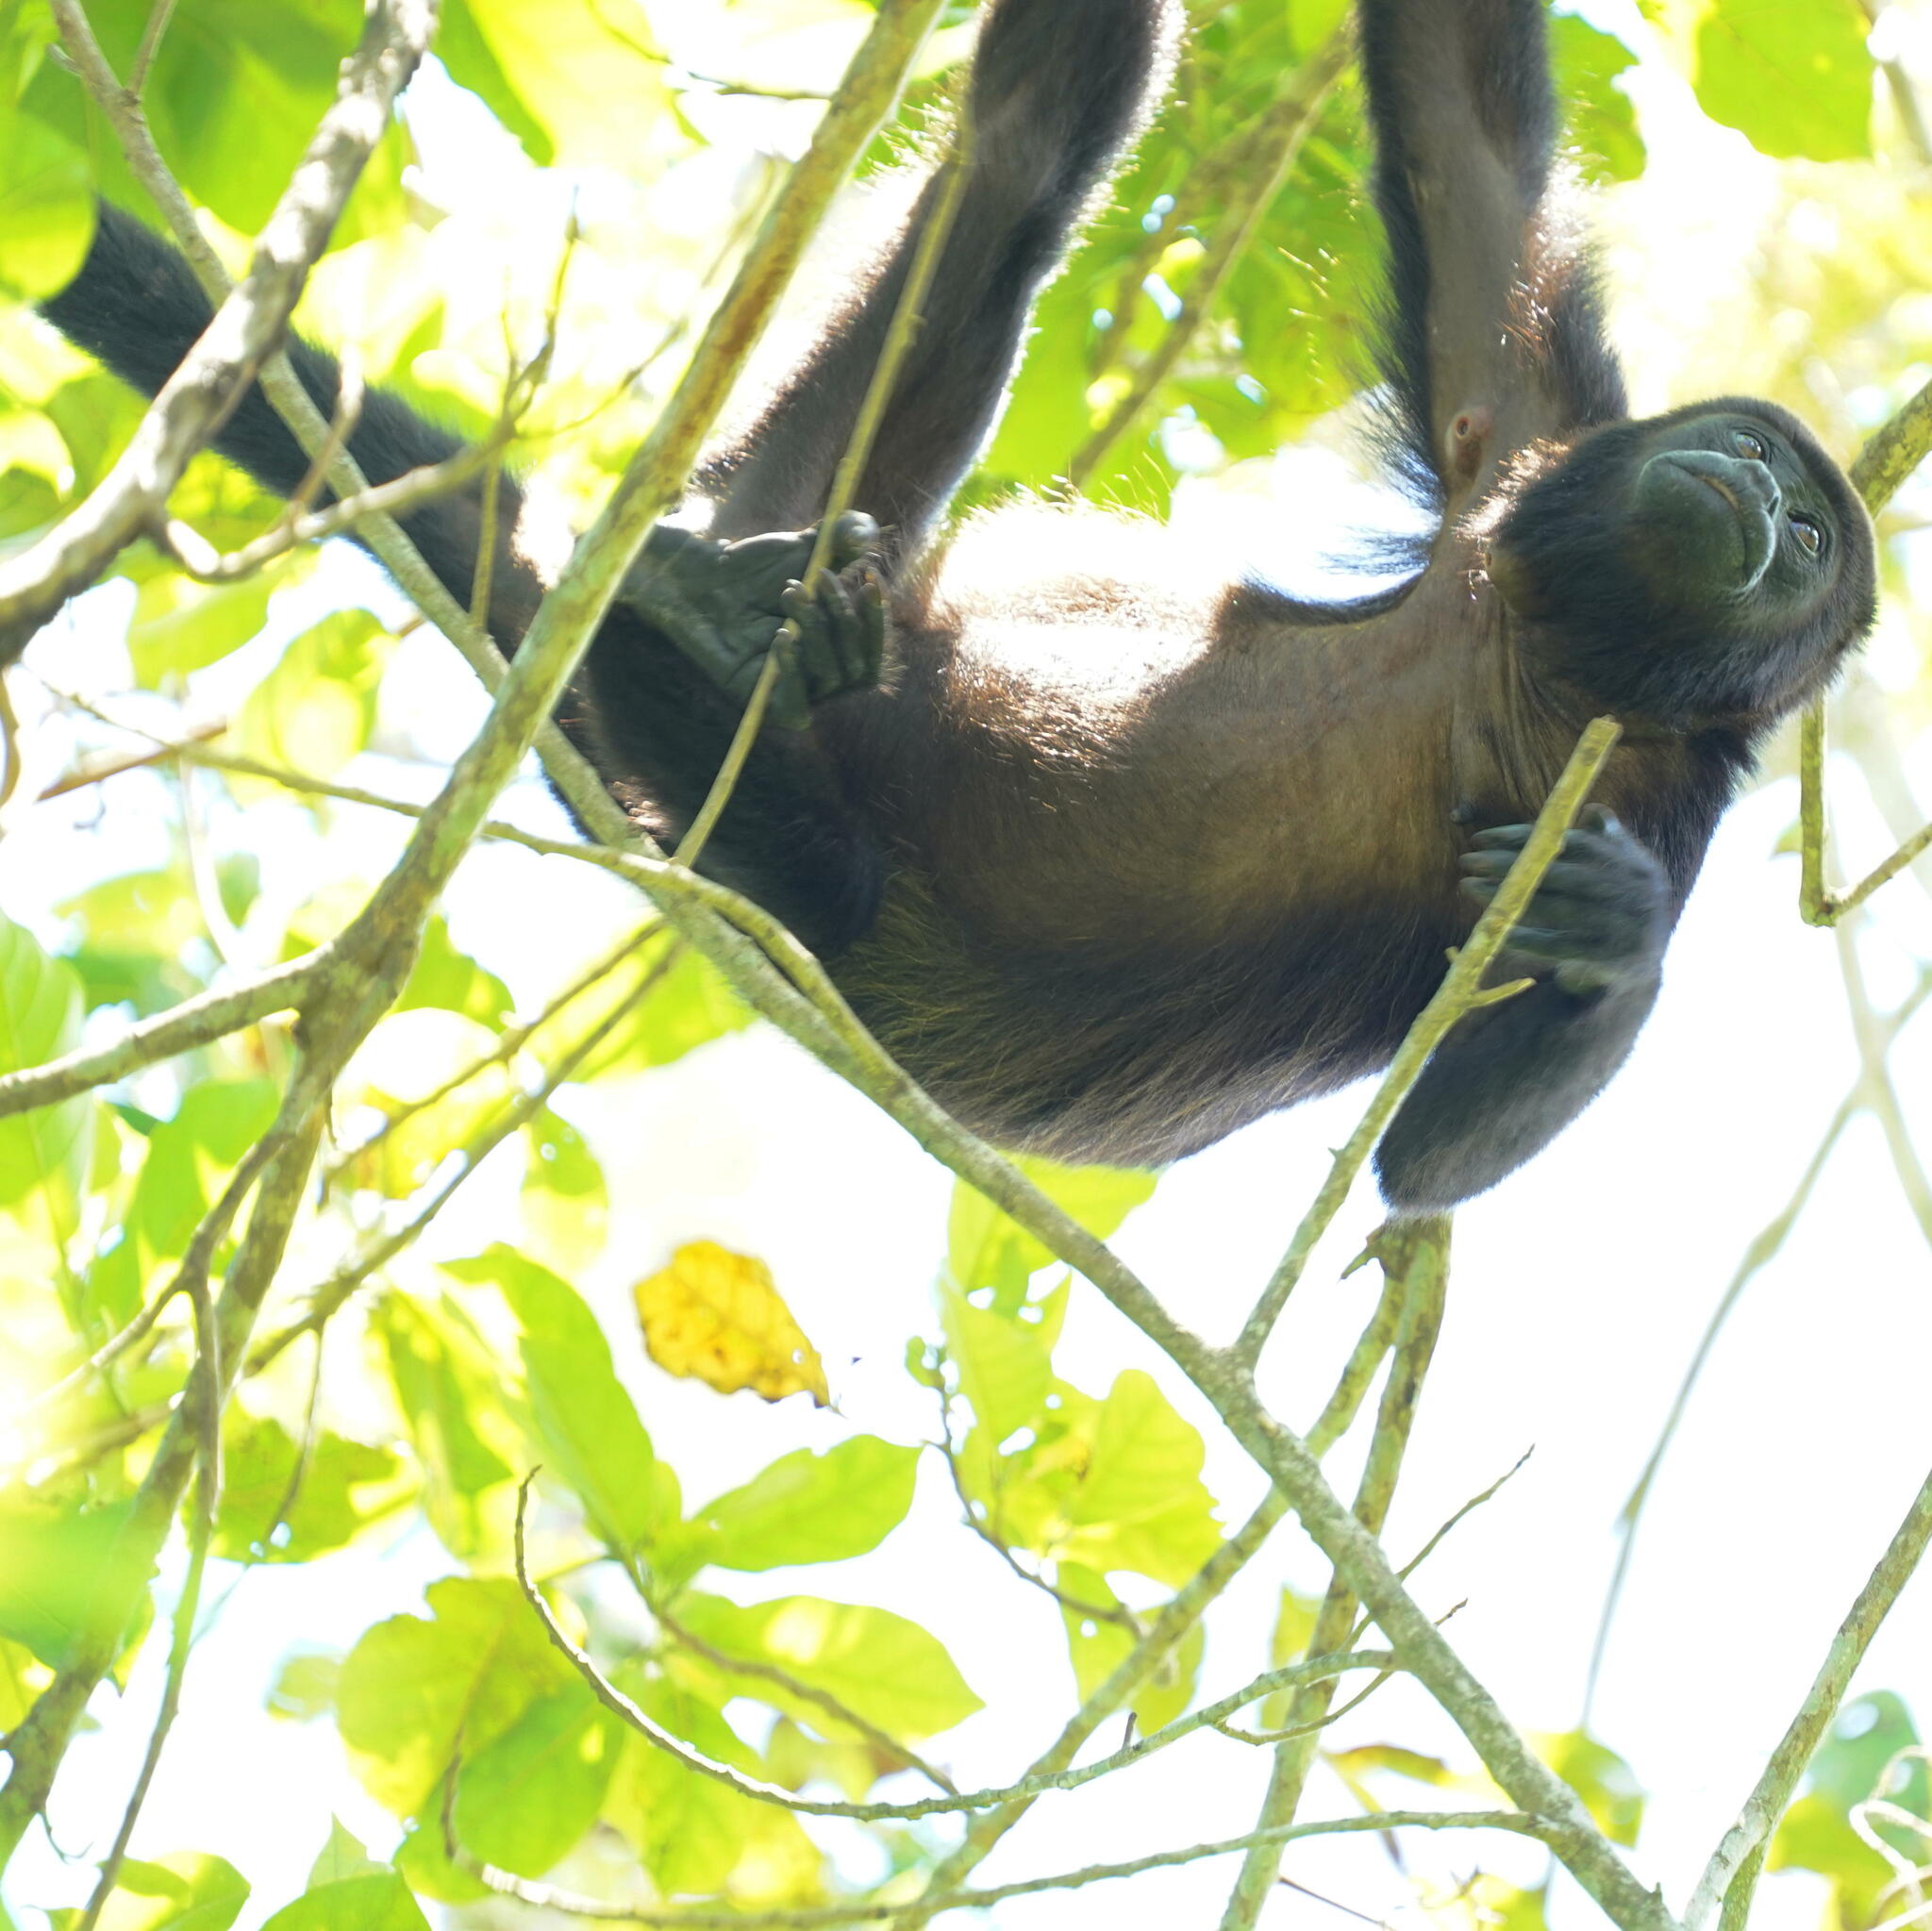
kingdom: Animalia
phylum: Chordata
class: Mammalia
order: Primates
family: Atelidae
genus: Alouatta
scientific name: Alouatta palliata
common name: Mantled howler
